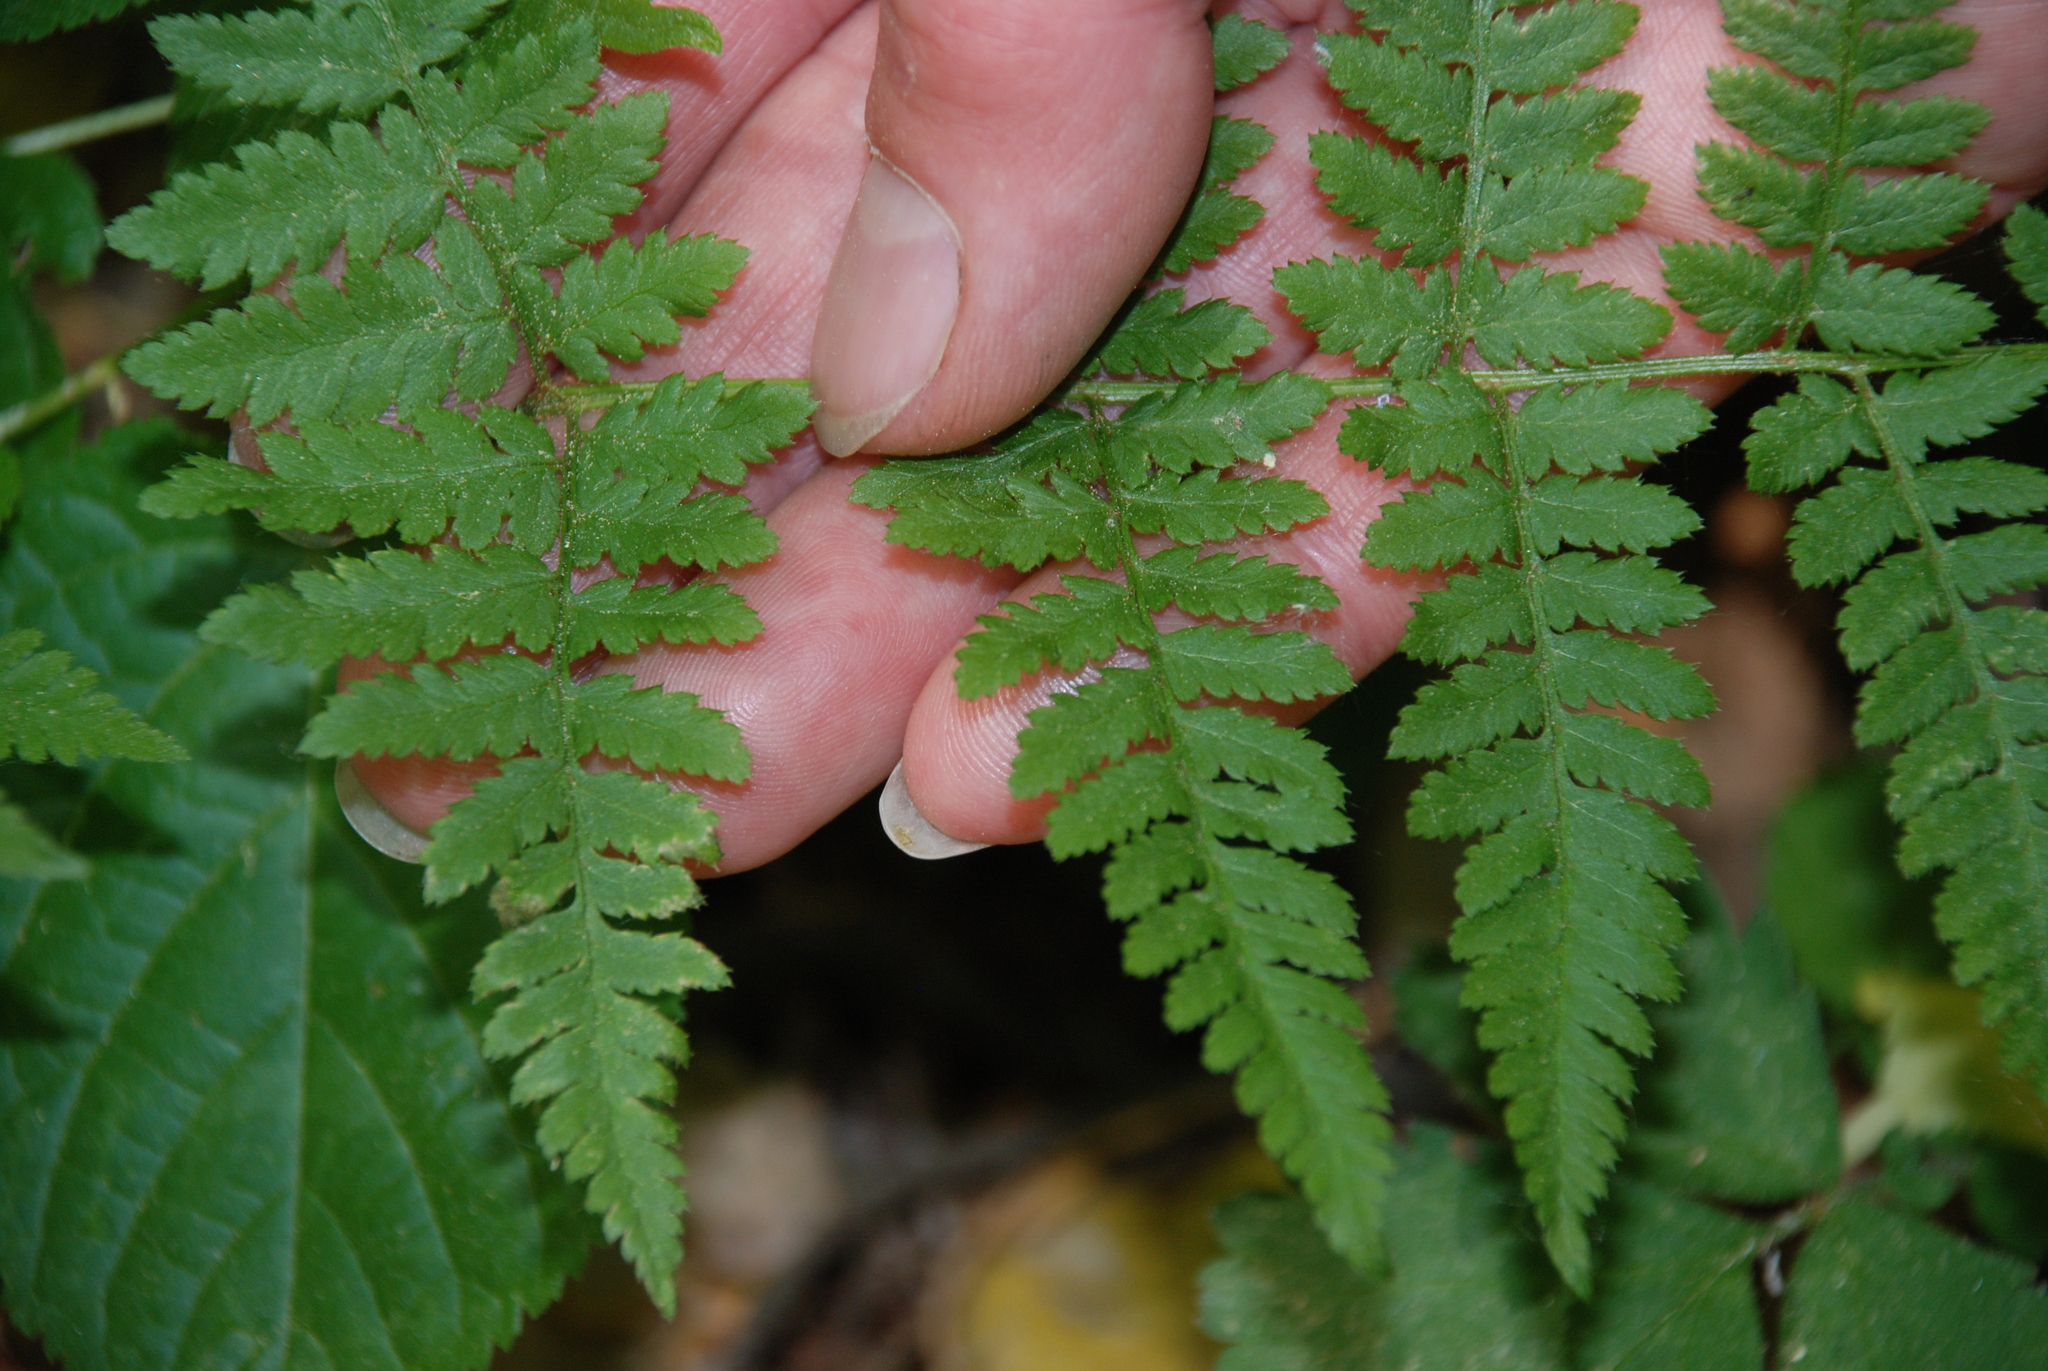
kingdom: Plantae
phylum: Tracheophyta
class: Polypodiopsida
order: Polypodiales
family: Dryopteridaceae
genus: Dryopteris
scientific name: Dryopteris carthusiana
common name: Narrow buckler-fern
